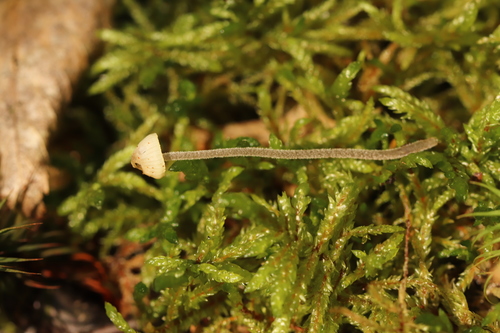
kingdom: Fungi
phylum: Basidiomycota
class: Agaricomycetes
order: Agaricales
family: Mycenaceae
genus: Hemimycena
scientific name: Hemimycena
